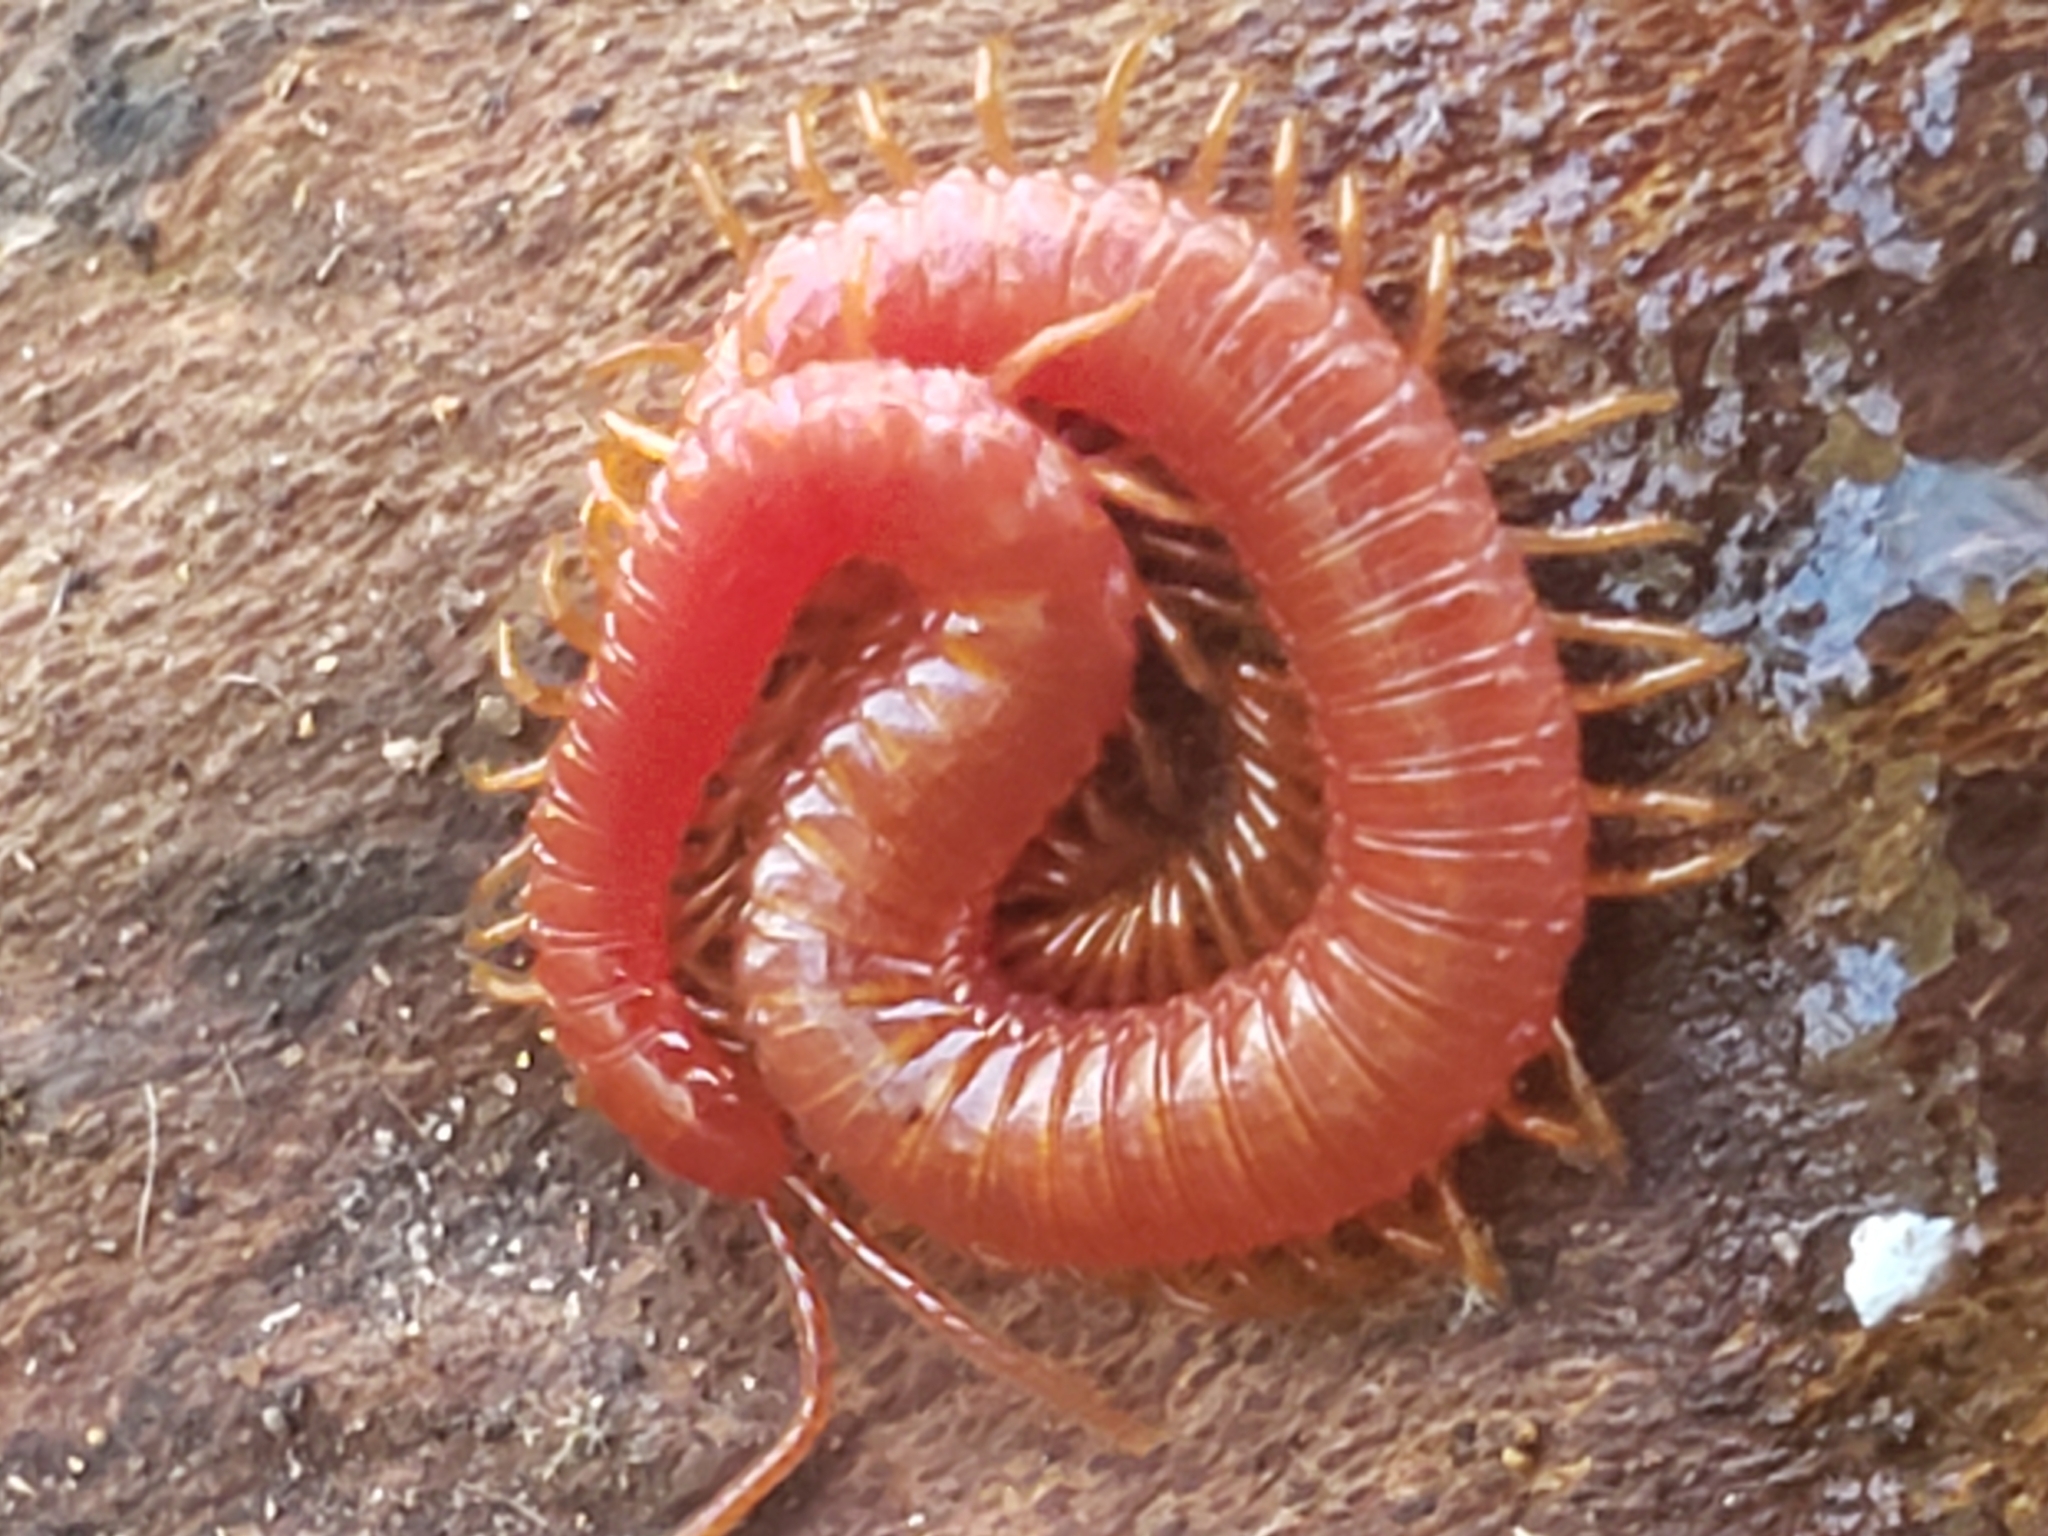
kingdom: Animalia
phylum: Arthropoda
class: Chilopoda
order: Geophilomorpha
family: Linotaeniidae
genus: Strigamia
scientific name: Strigamia bothriopus
